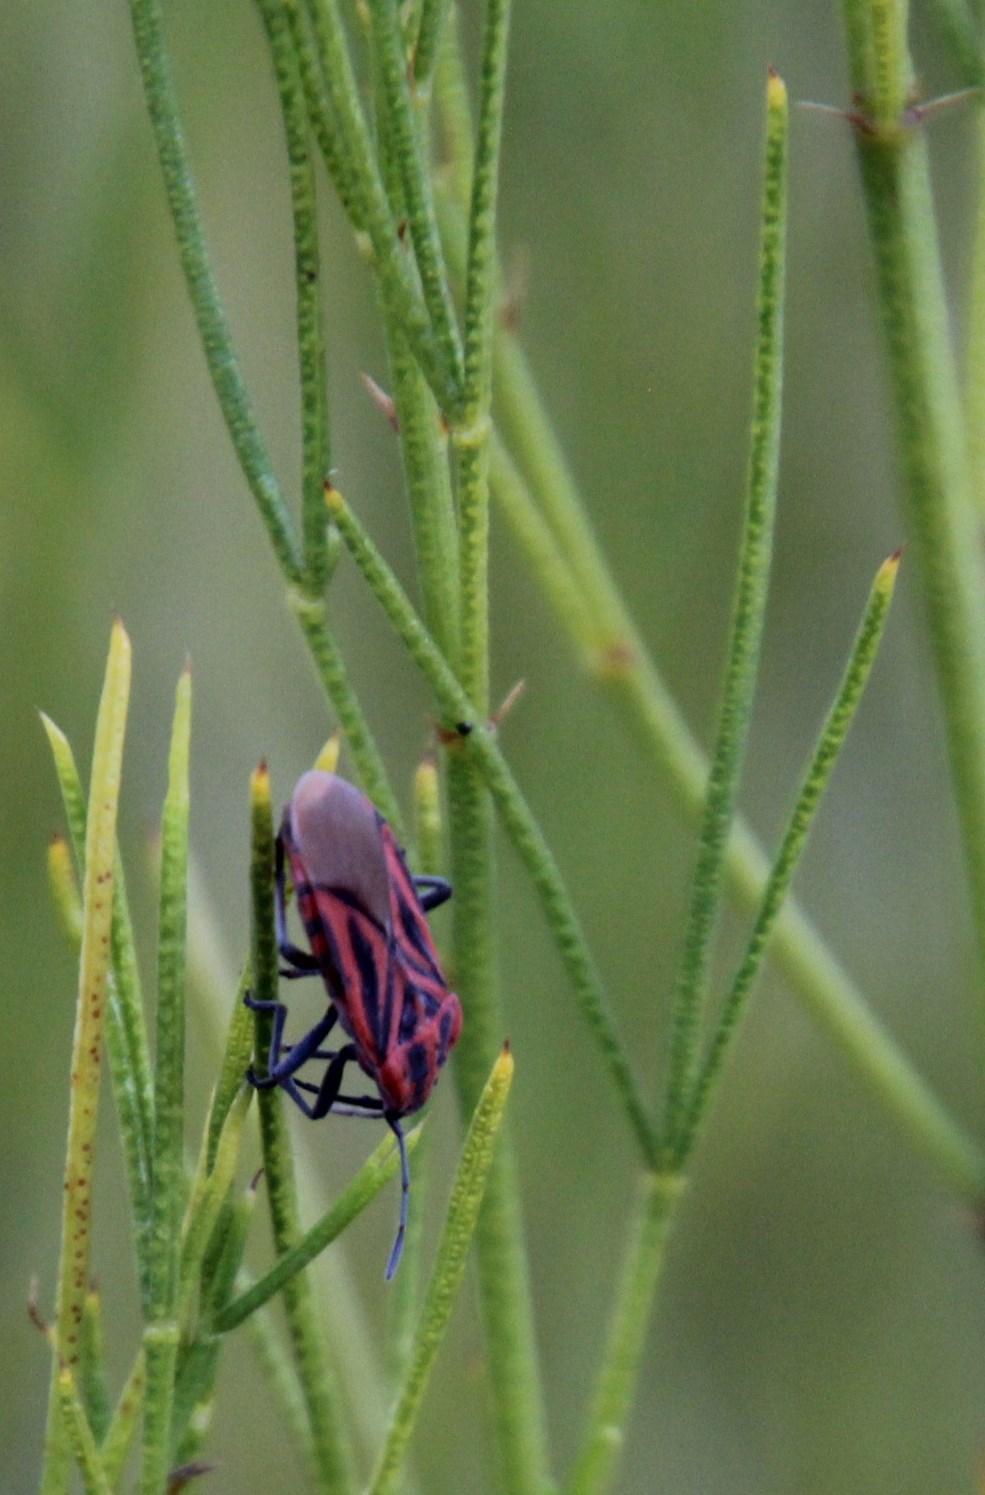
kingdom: Animalia
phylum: Arthropoda
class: Insecta
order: Hemiptera
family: Lygaeidae
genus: Spilostethus
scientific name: Spilostethus taeniatus
